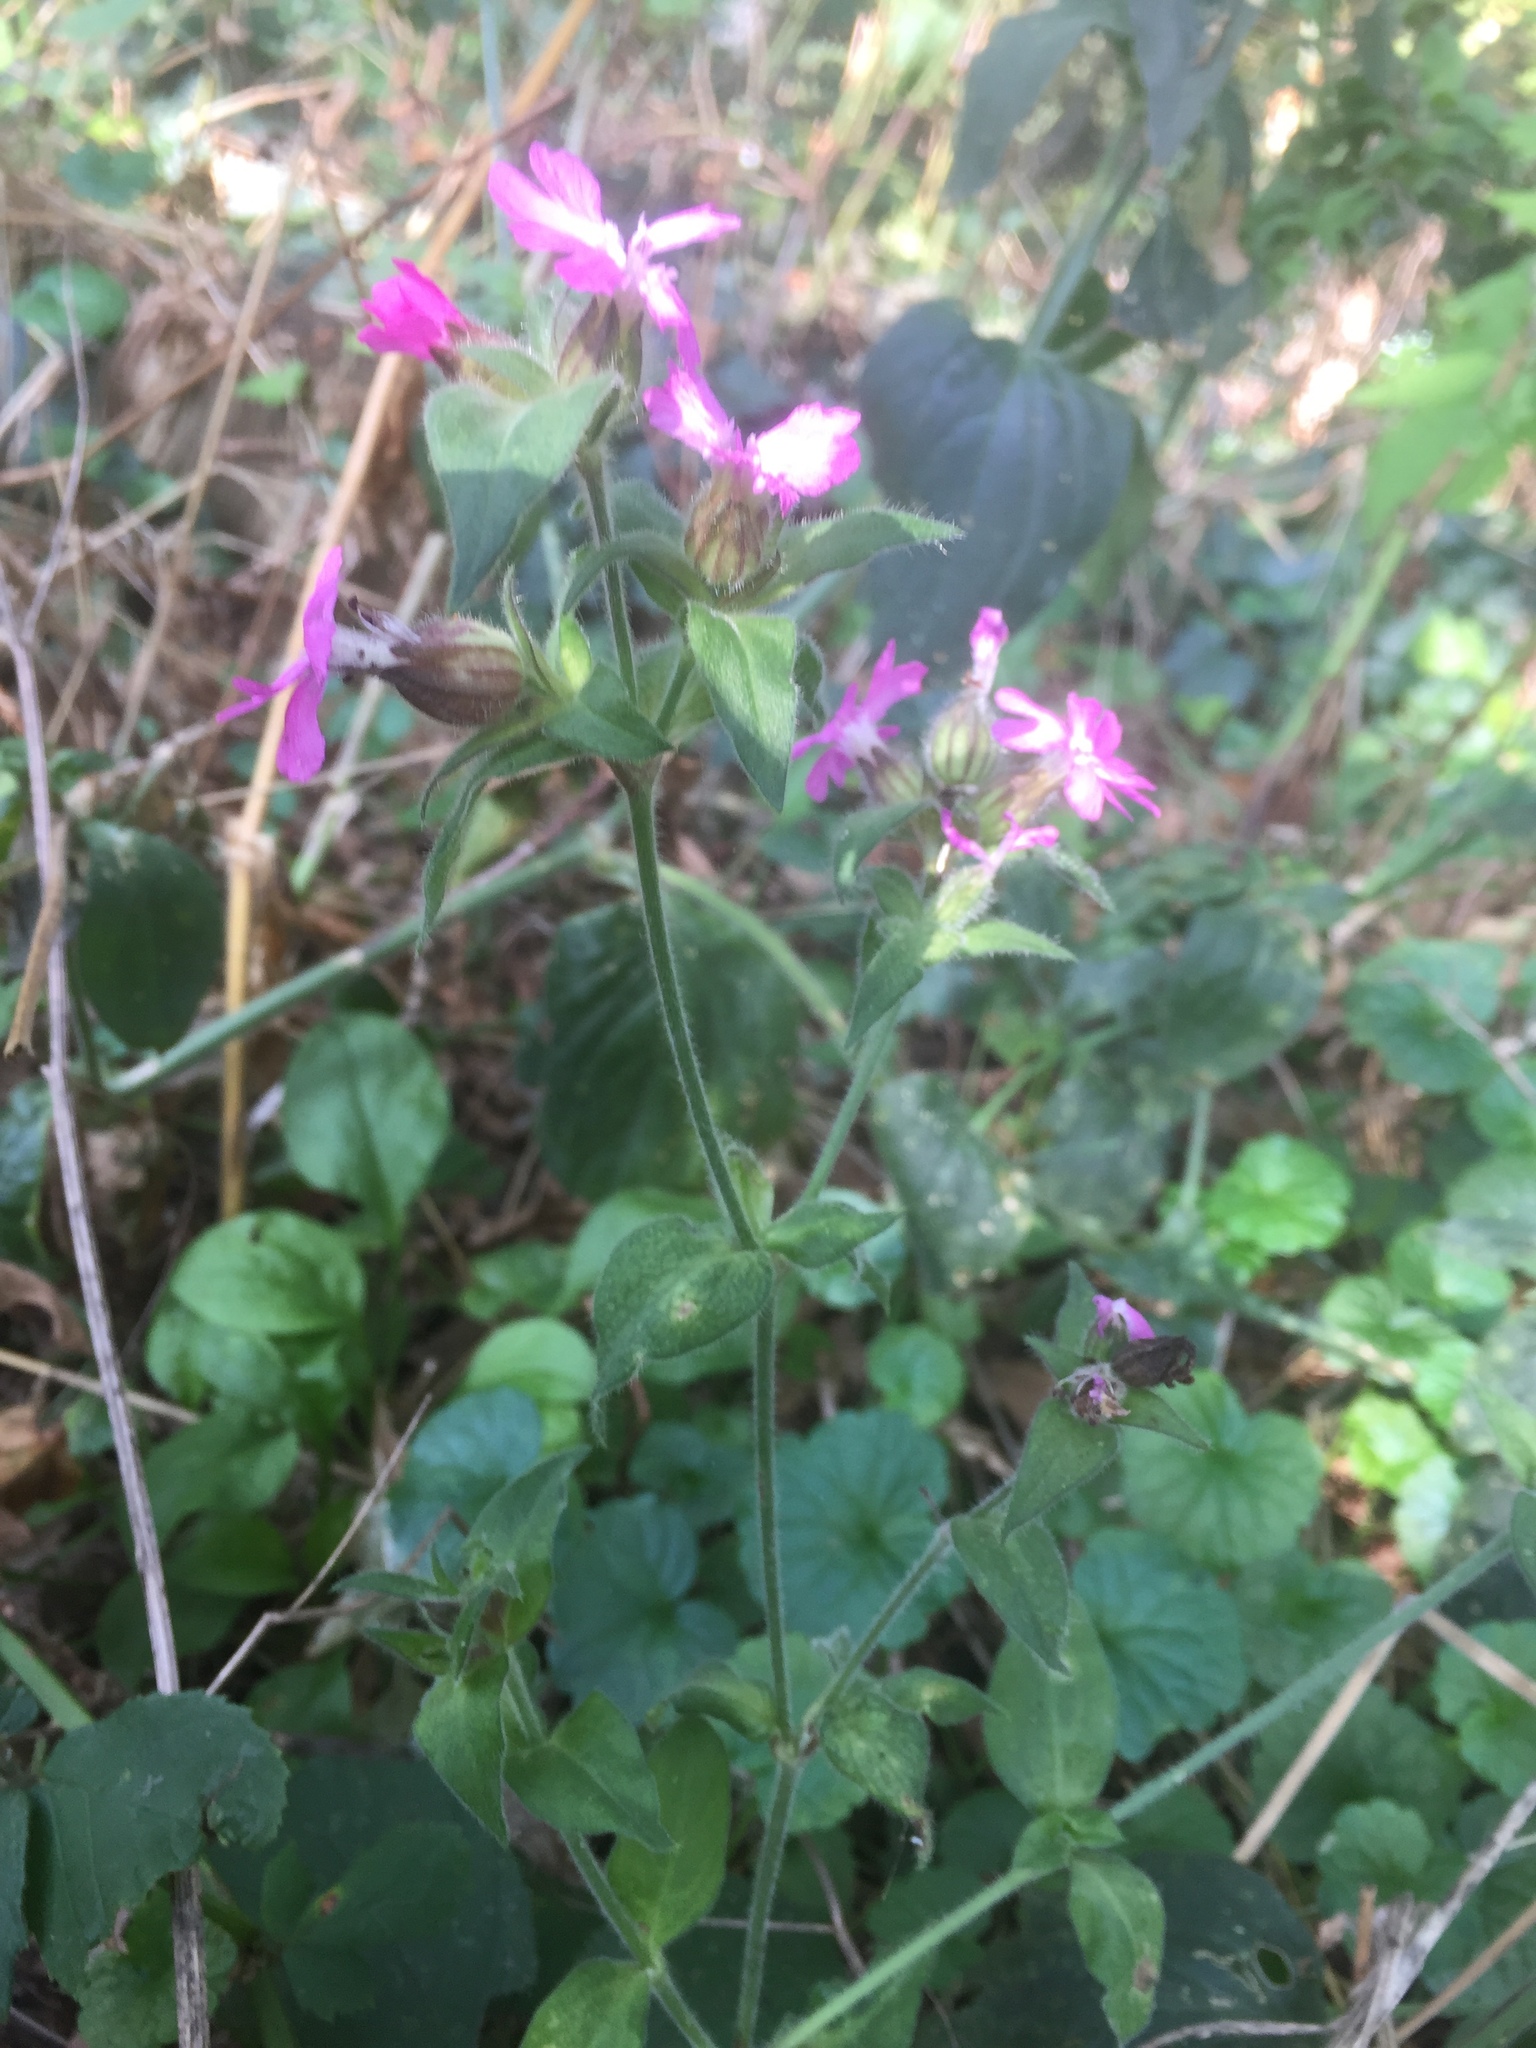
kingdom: Plantae
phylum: Tracheophyta
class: Magnoliopsida
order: Caryophyllales
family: Caryophyllaceae
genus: Silene
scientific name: Silene dioica
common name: Red campion
